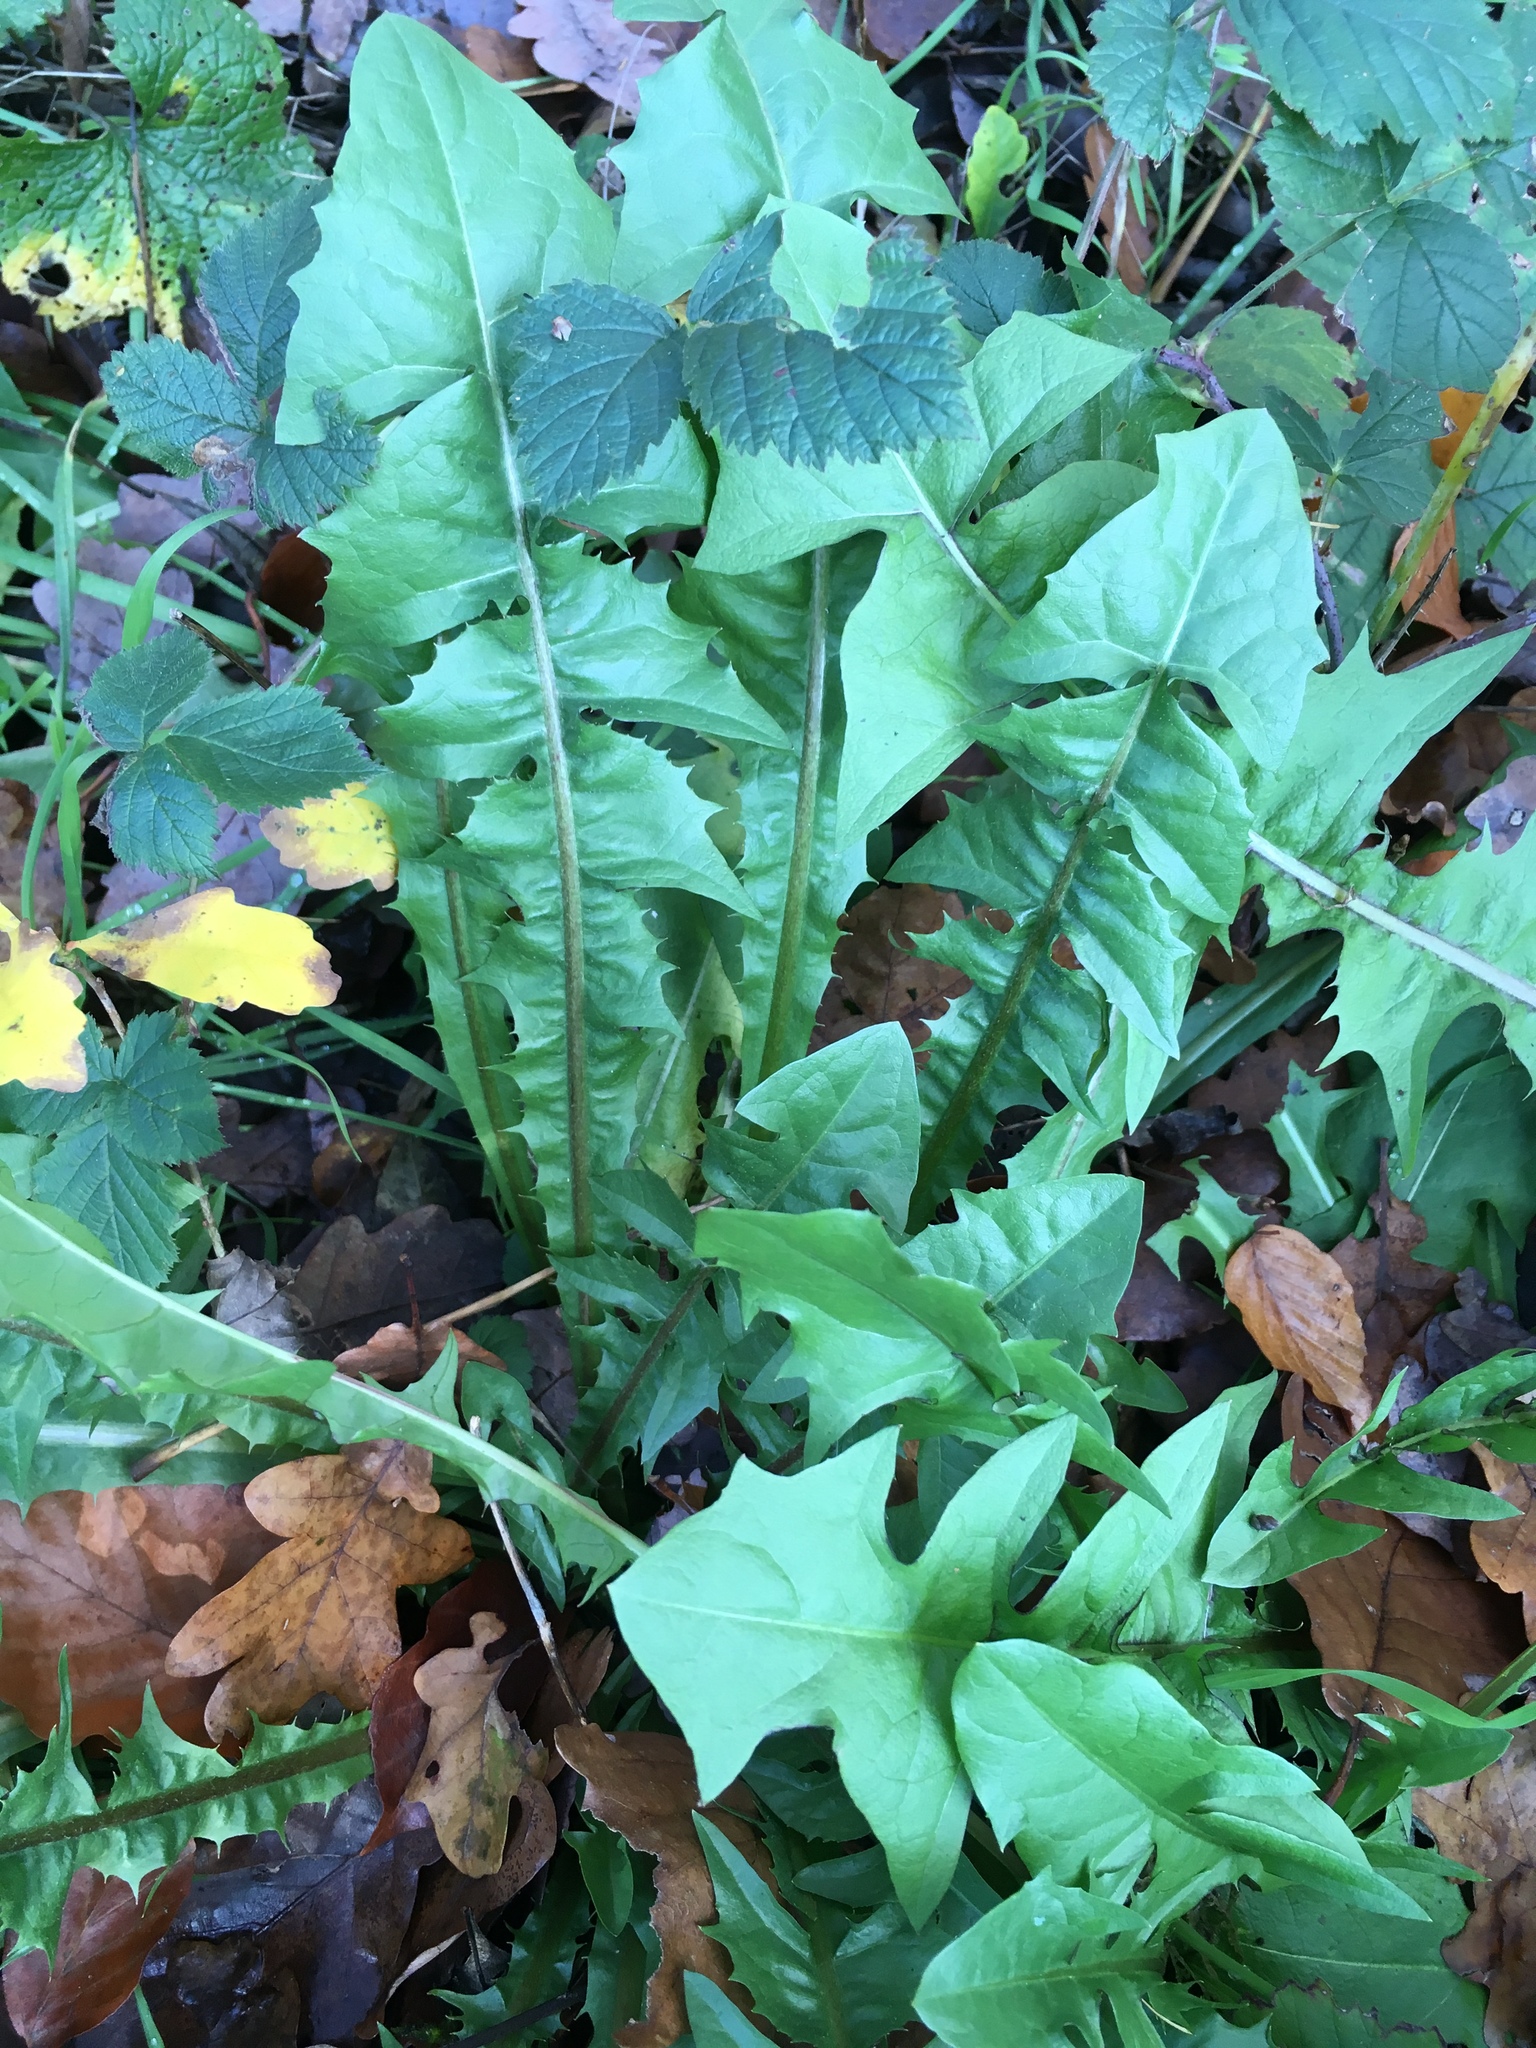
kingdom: Plantae
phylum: Tracheophyta
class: Magnoliopsida
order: Asterales
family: Asteraceae
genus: Taraxacum
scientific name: Taraxacum officinale
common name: Common dandelion
